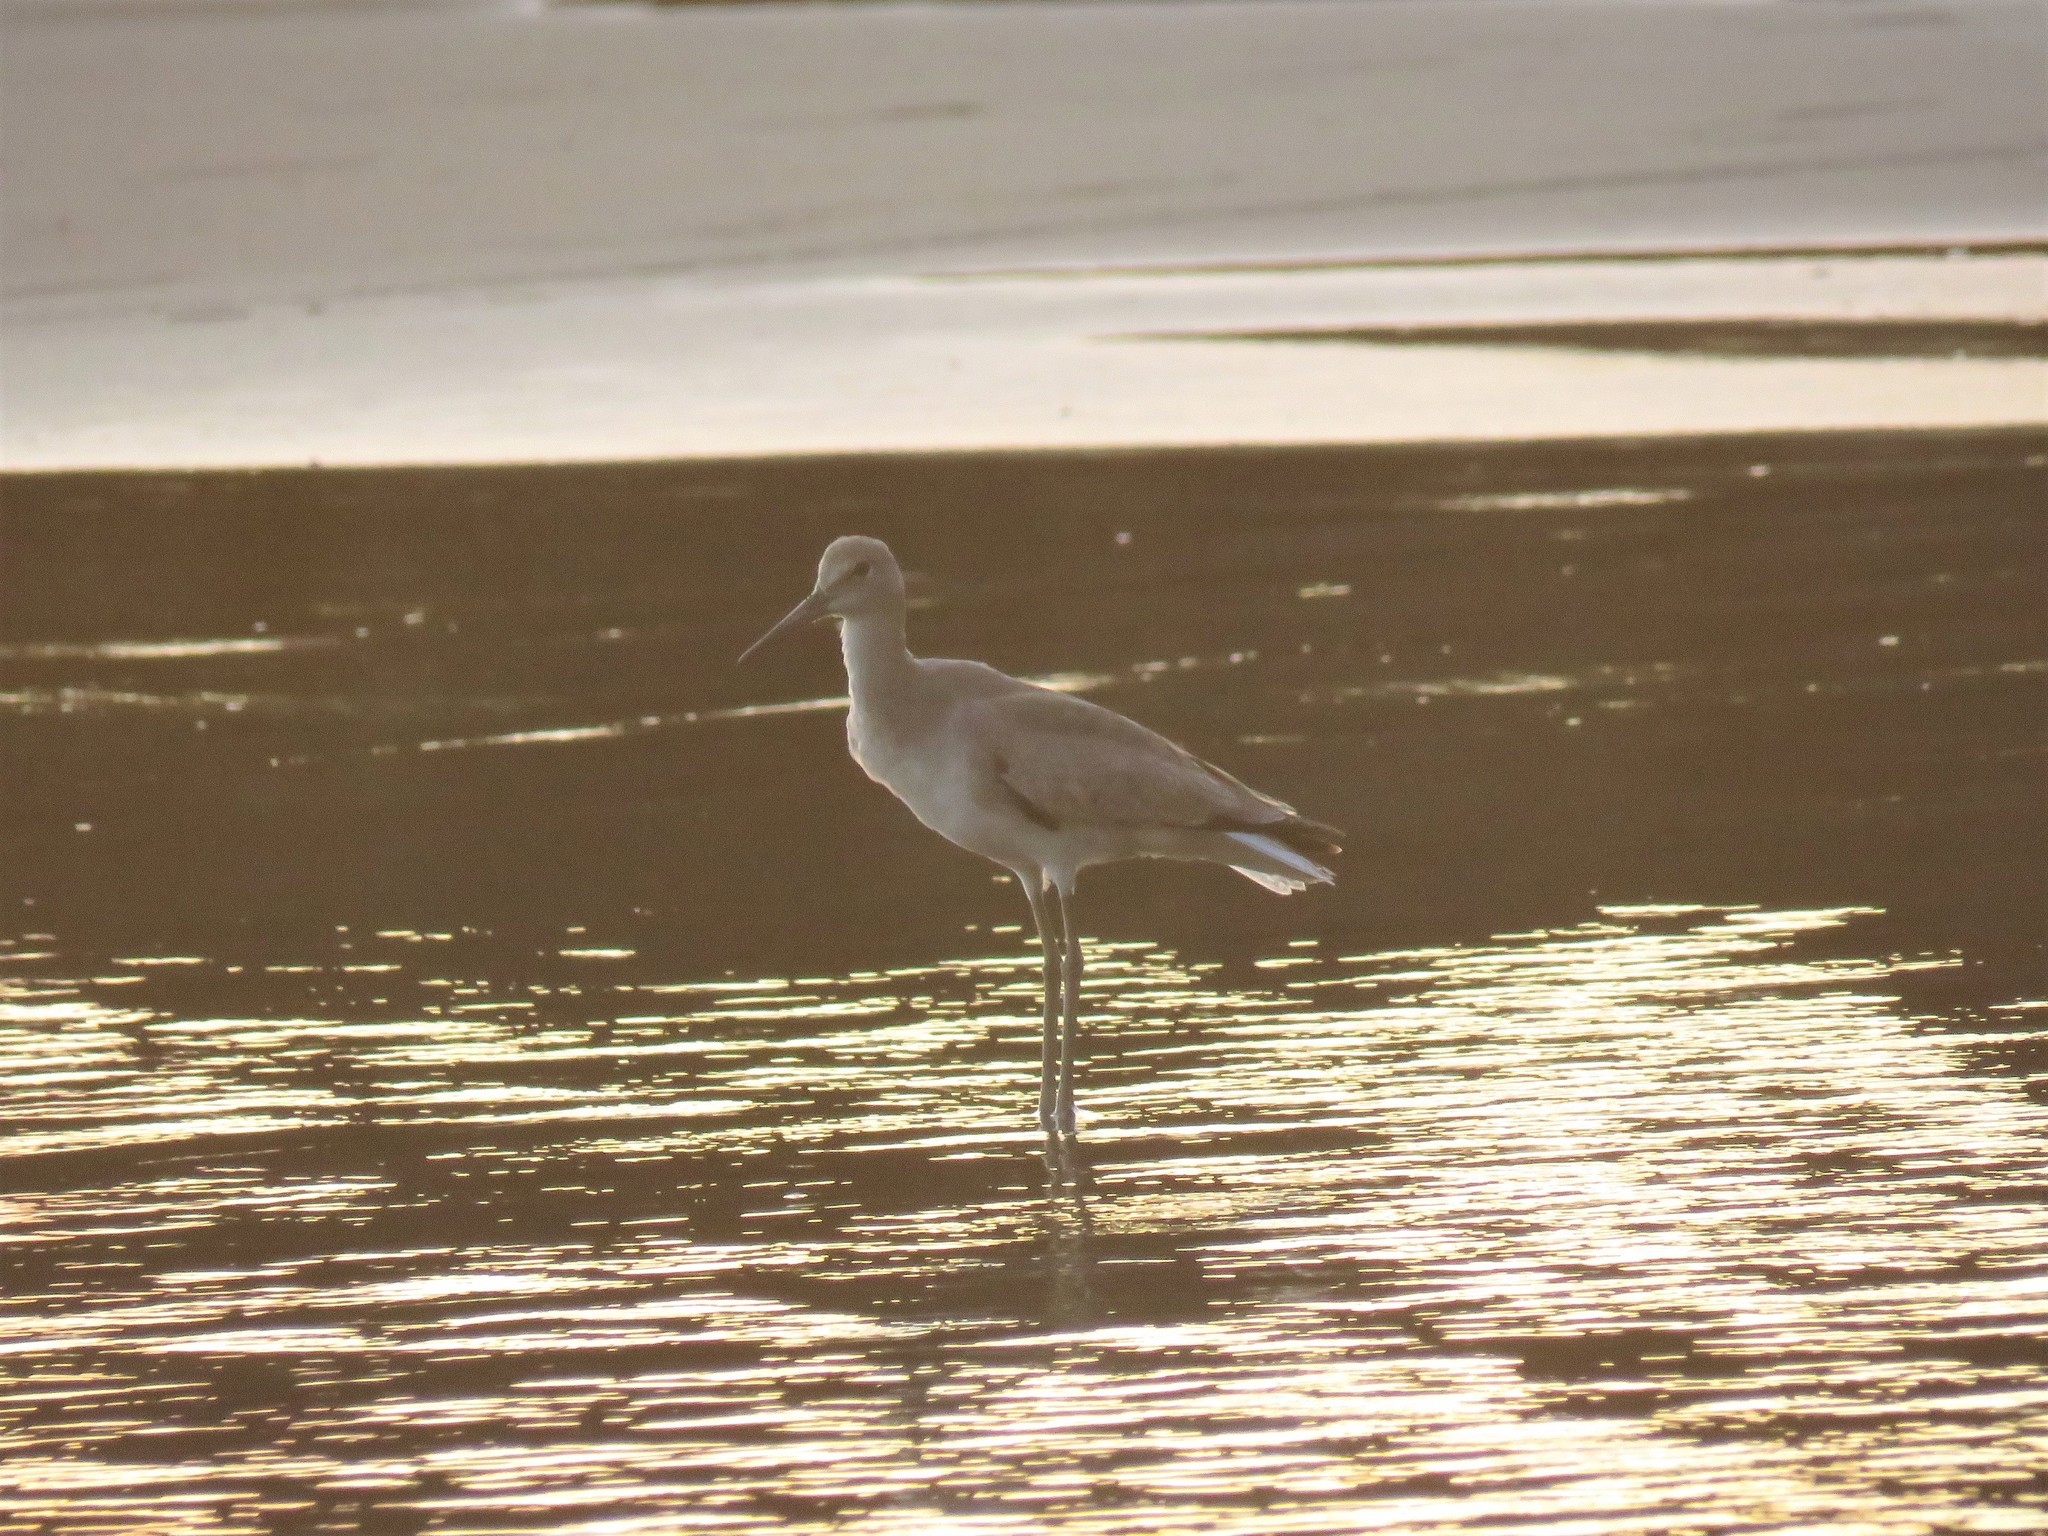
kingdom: Animalia
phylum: Chordata
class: Aves
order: Charadriiformes
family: Scolopacidae
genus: Tringa
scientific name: Tringa semipalmata
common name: Willet
